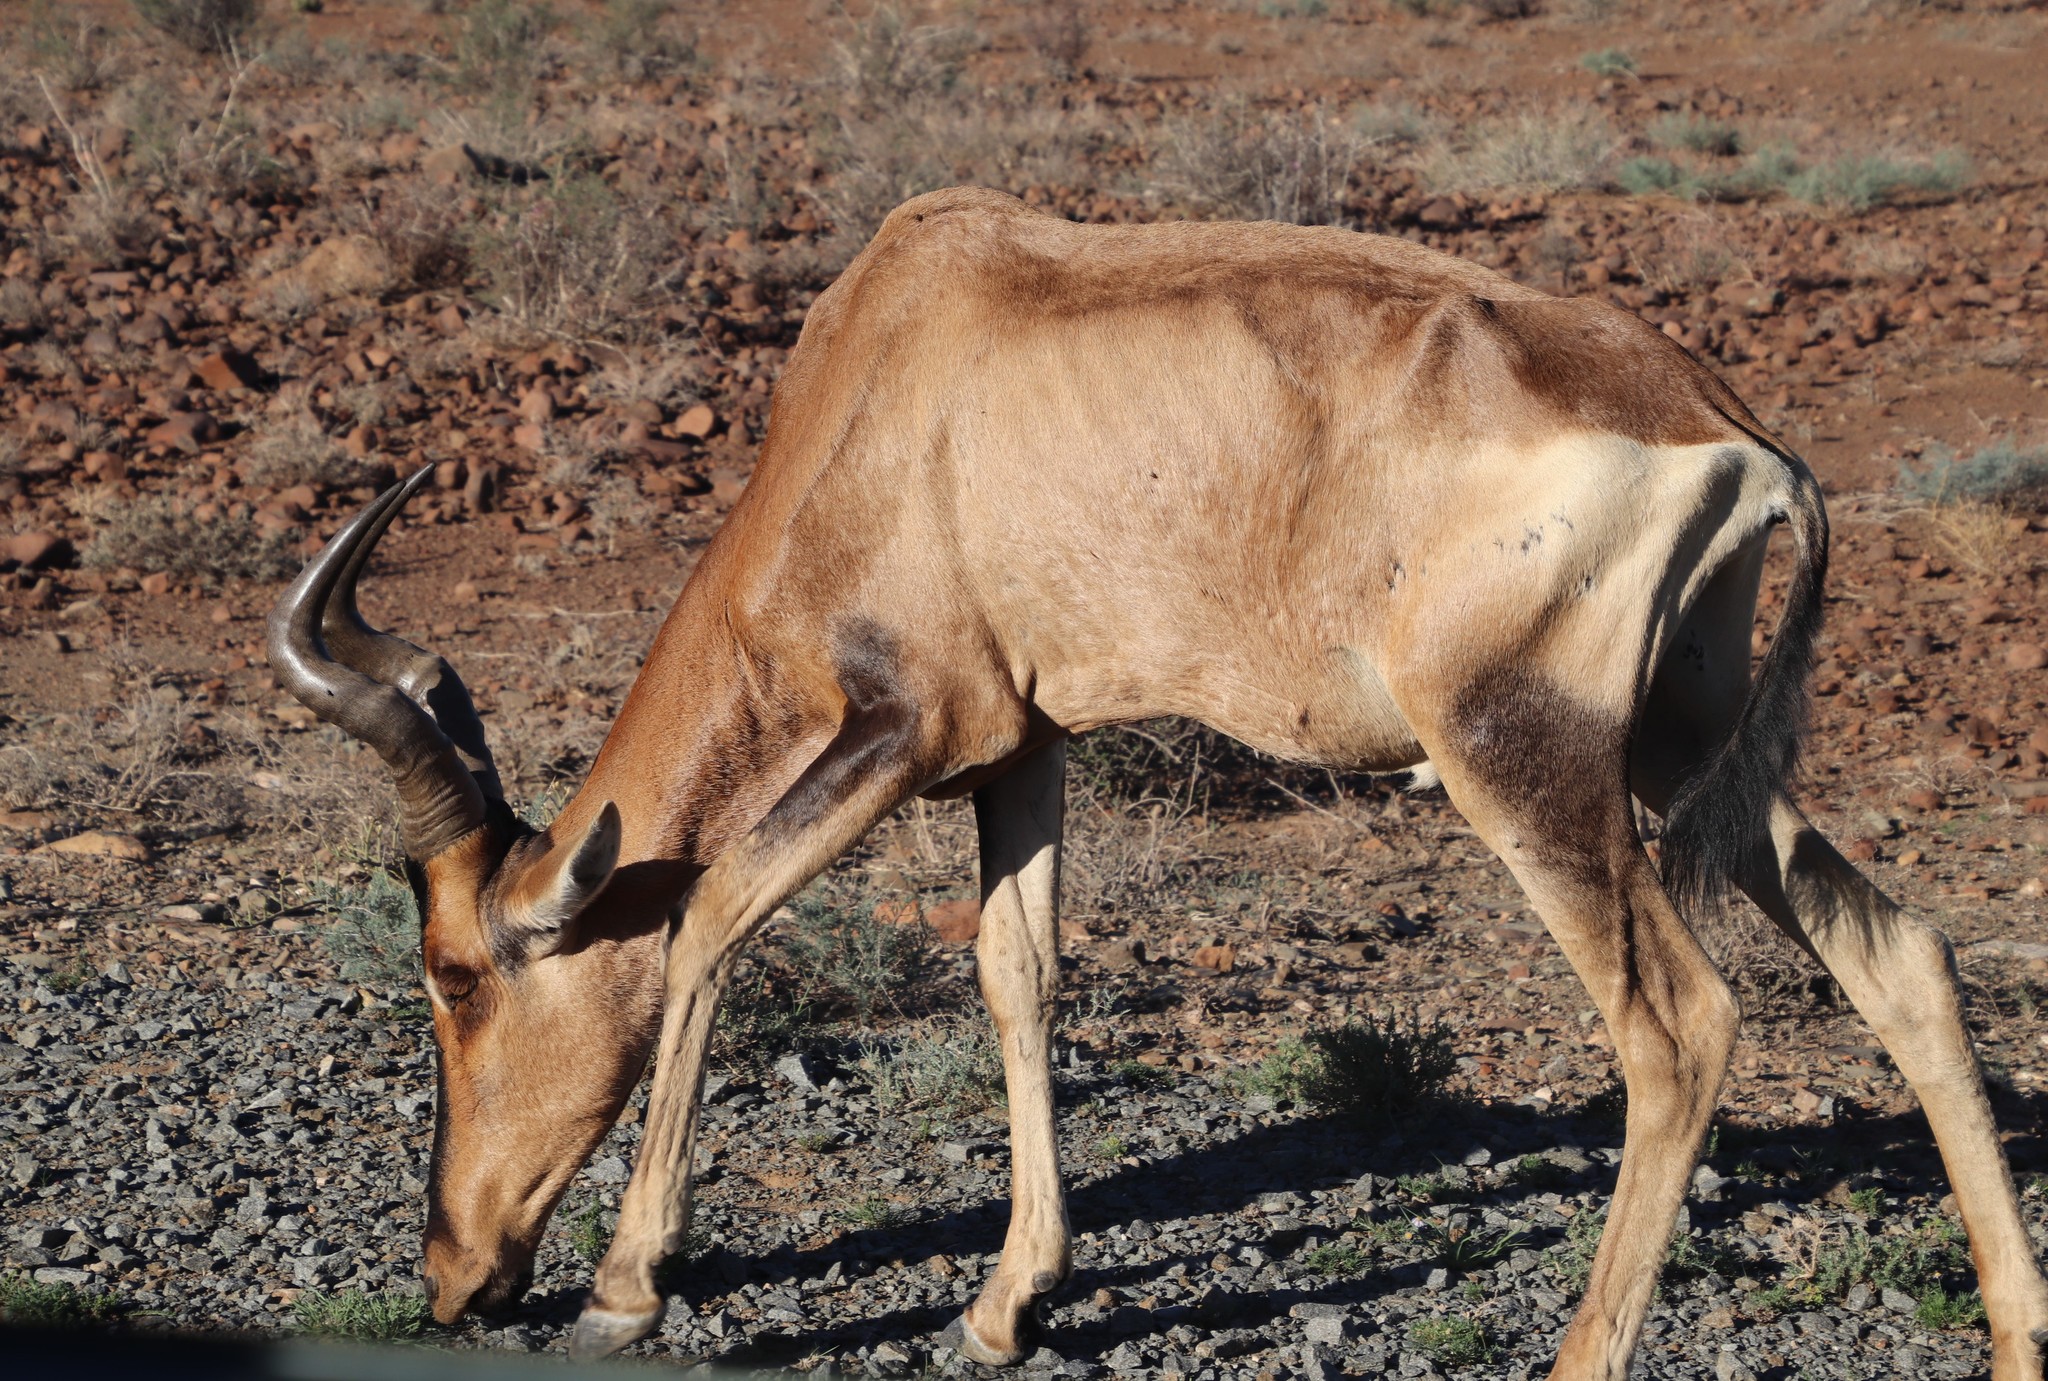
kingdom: Animalia
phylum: Chordata
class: Mammalia
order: Artiodactyla
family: Bovidae
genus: Alcelaphus
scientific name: Alcelaphus caama
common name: Red hartebeest
